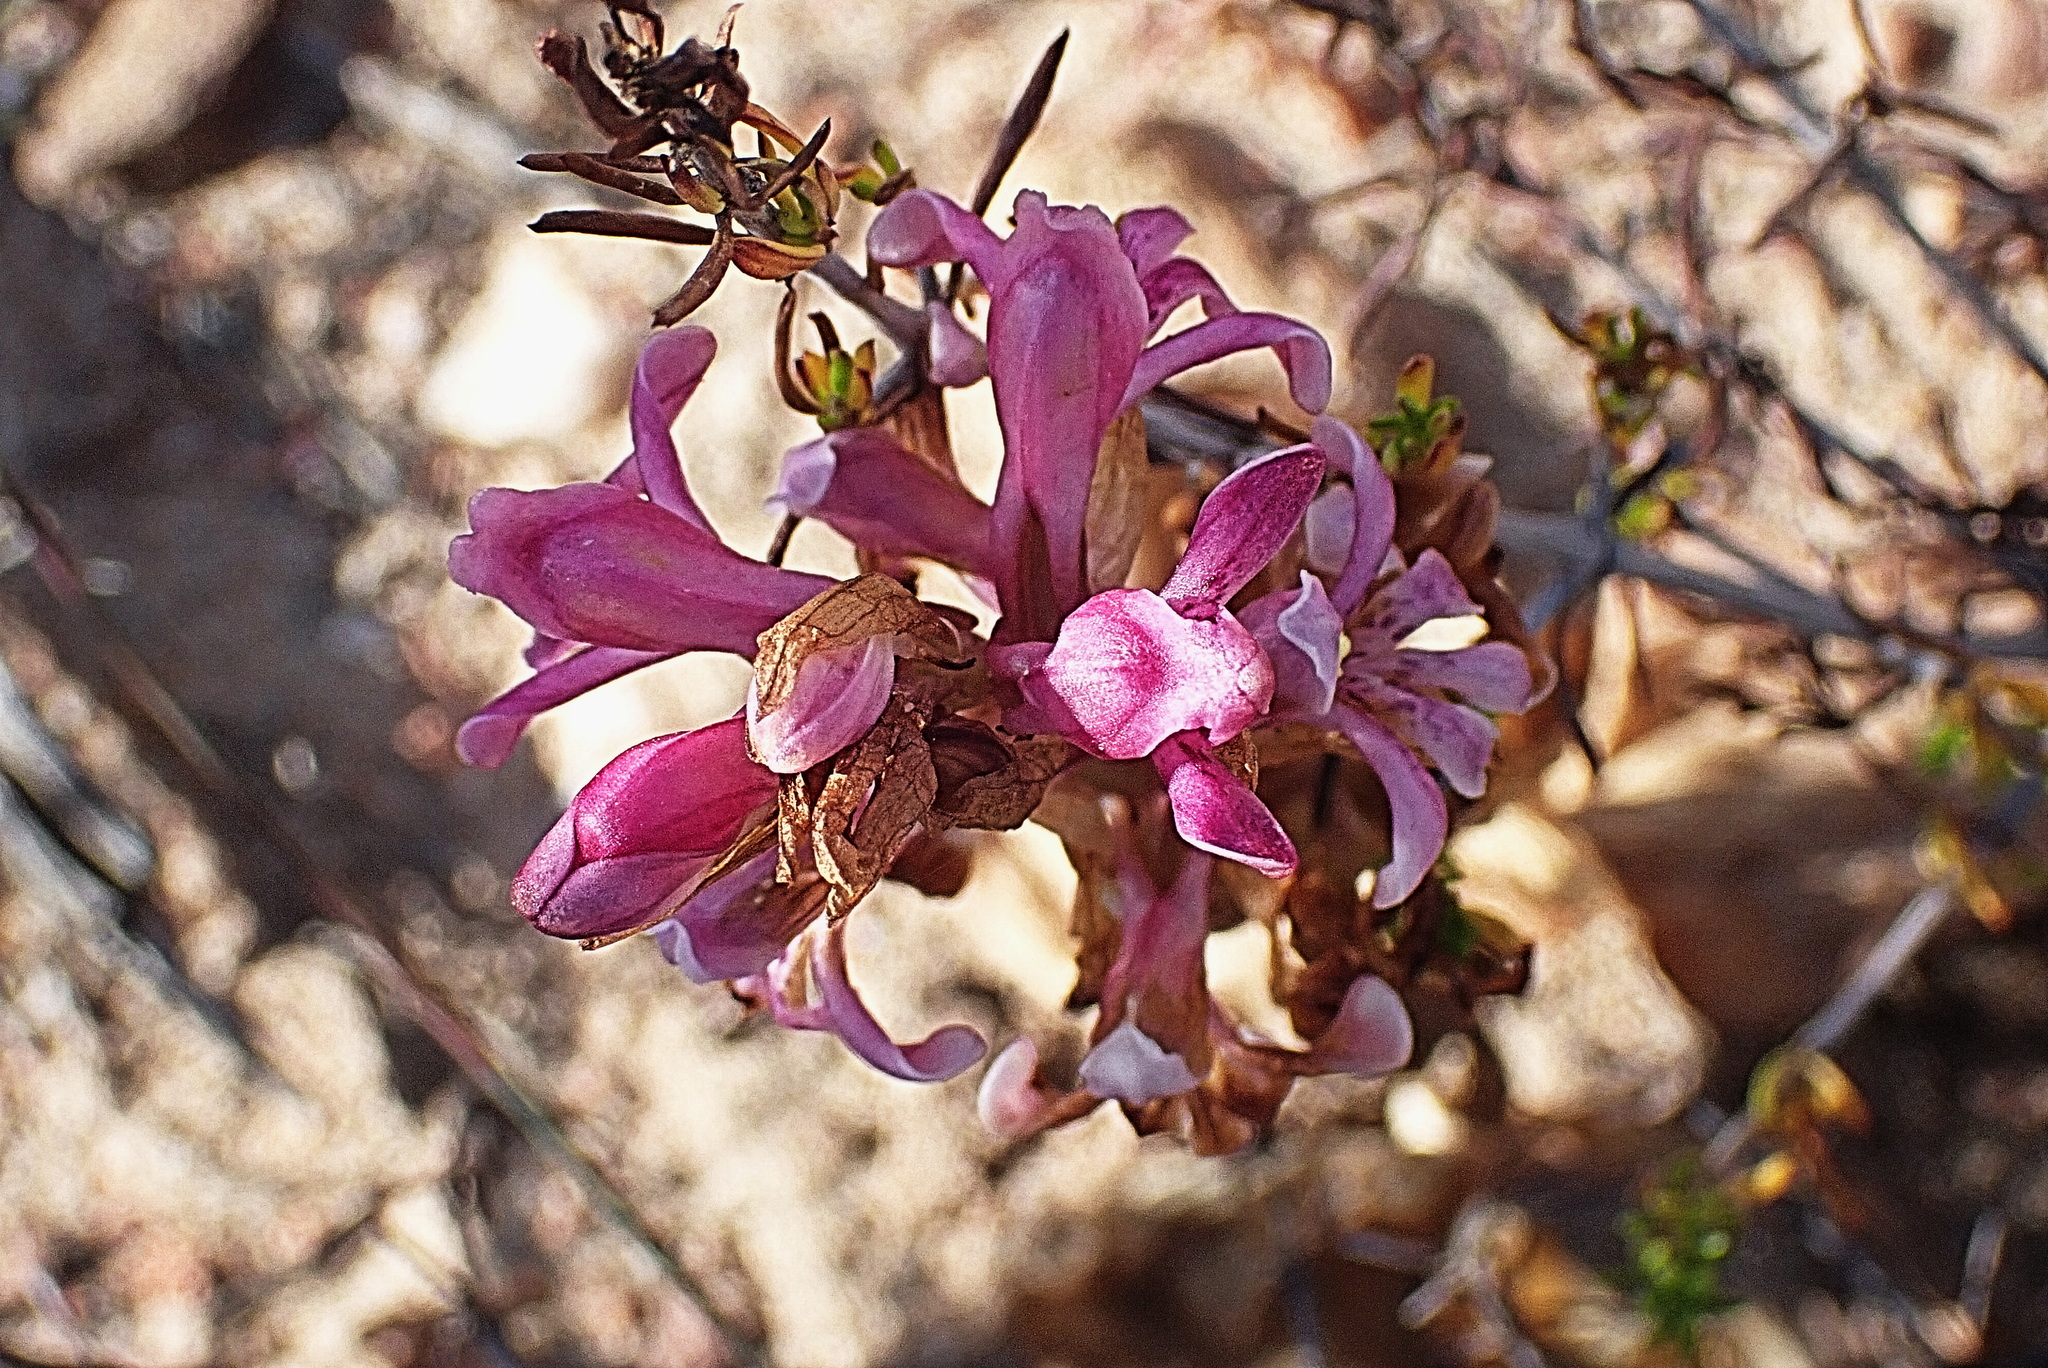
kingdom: Plantae
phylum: Tracheophyta
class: Liliopsida
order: Asparagales
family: Orchidaceae
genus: Satyrium
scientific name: Satyrium erectum
